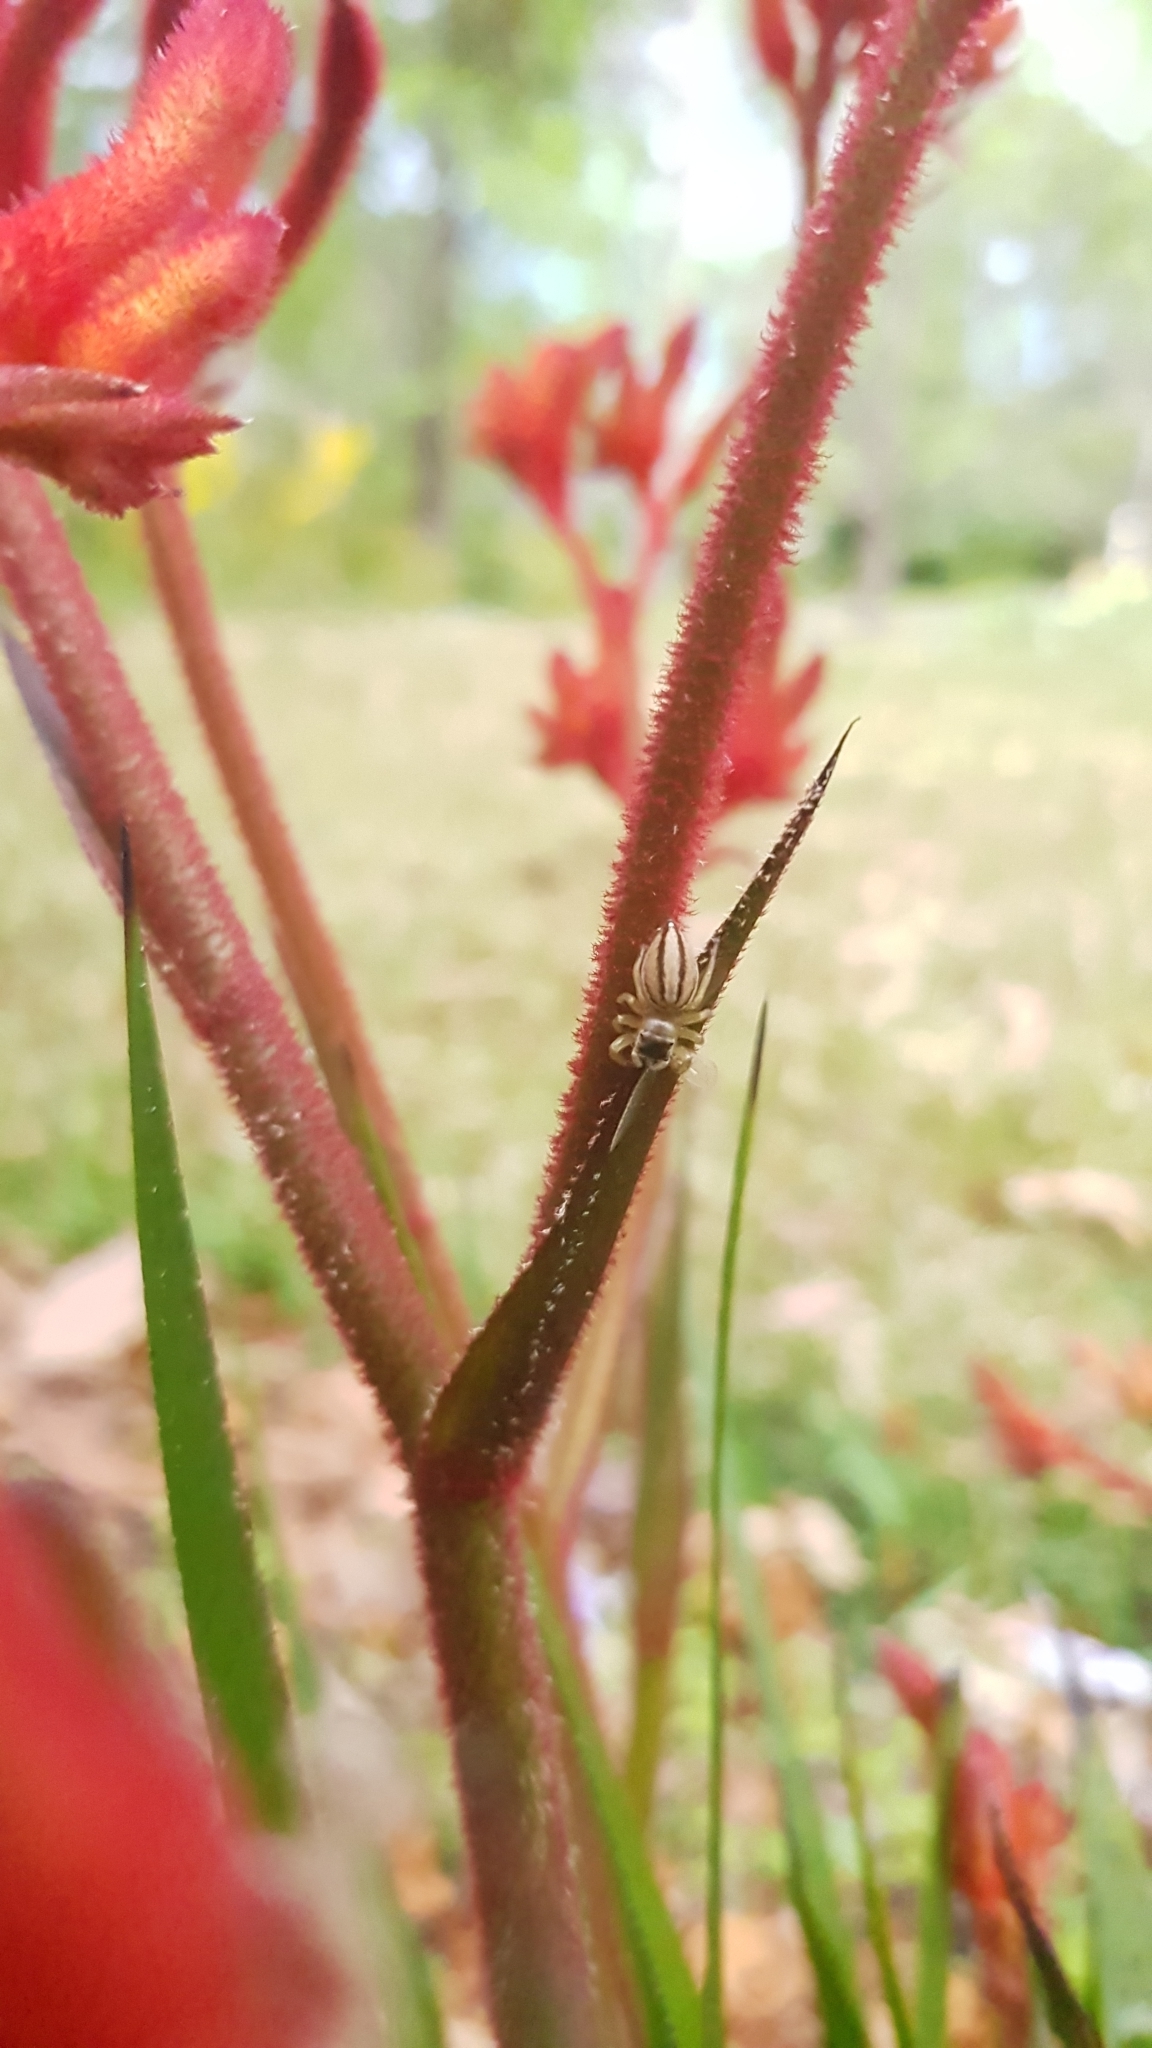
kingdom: Animalia
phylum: Arthropoda
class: Arachnida
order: Araneae
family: Salticidae
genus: Maratus
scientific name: Maratus scutulatus
